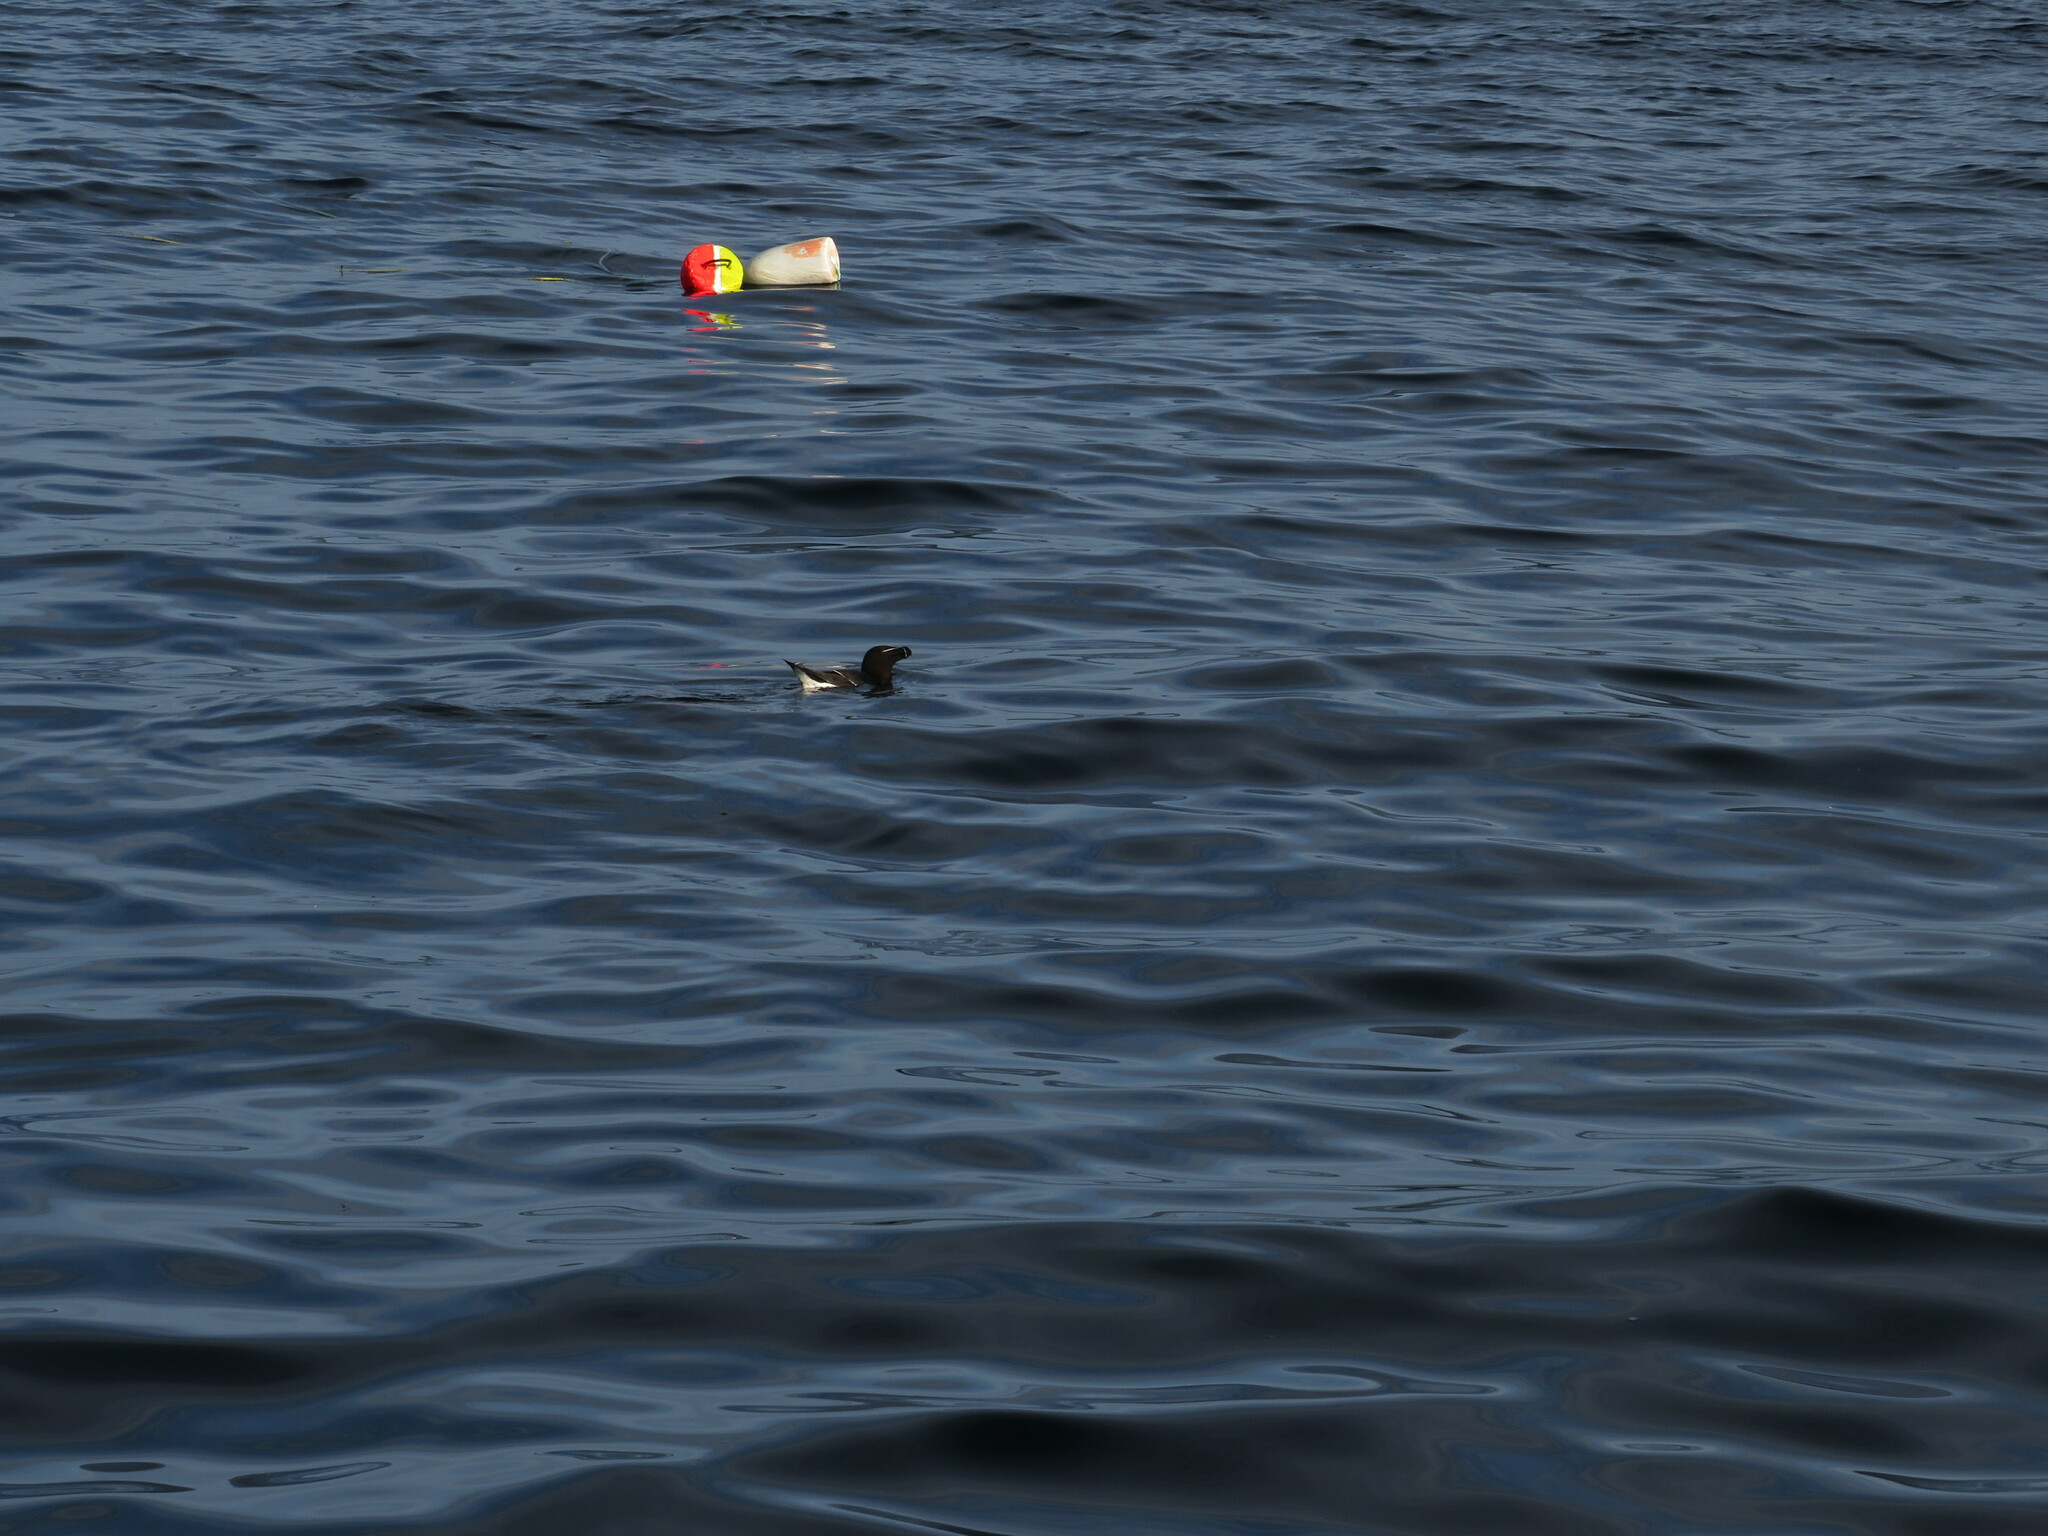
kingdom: Animalia
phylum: Chordata
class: Aves
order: Charadriiformes
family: Alcidae
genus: Alca
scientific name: Alca torda
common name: Razorbill
